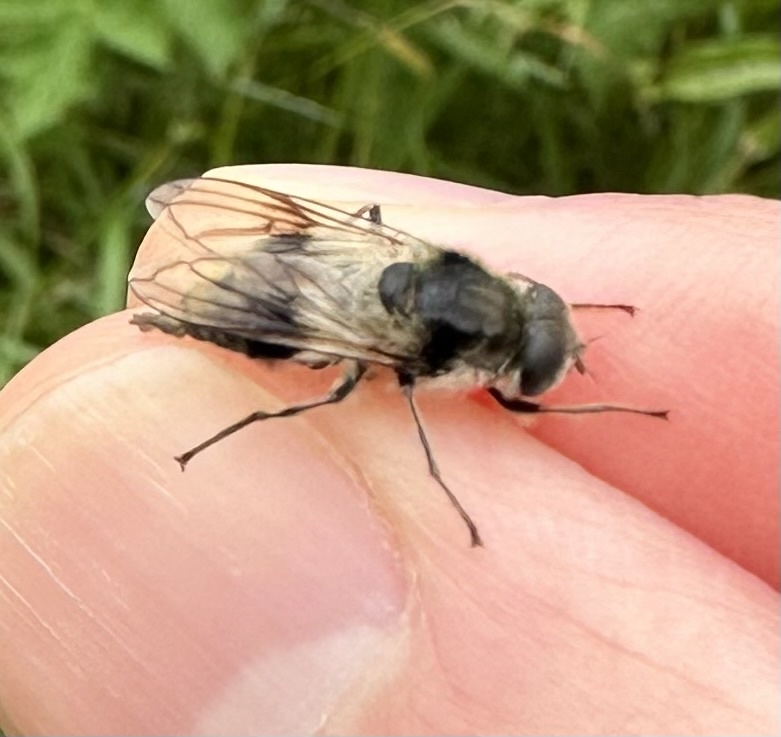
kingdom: Animalia
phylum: Arthropoda
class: Insecta
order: Diptera
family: Syrphidae
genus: Cheilosia
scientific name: Cheilosia illustrata
